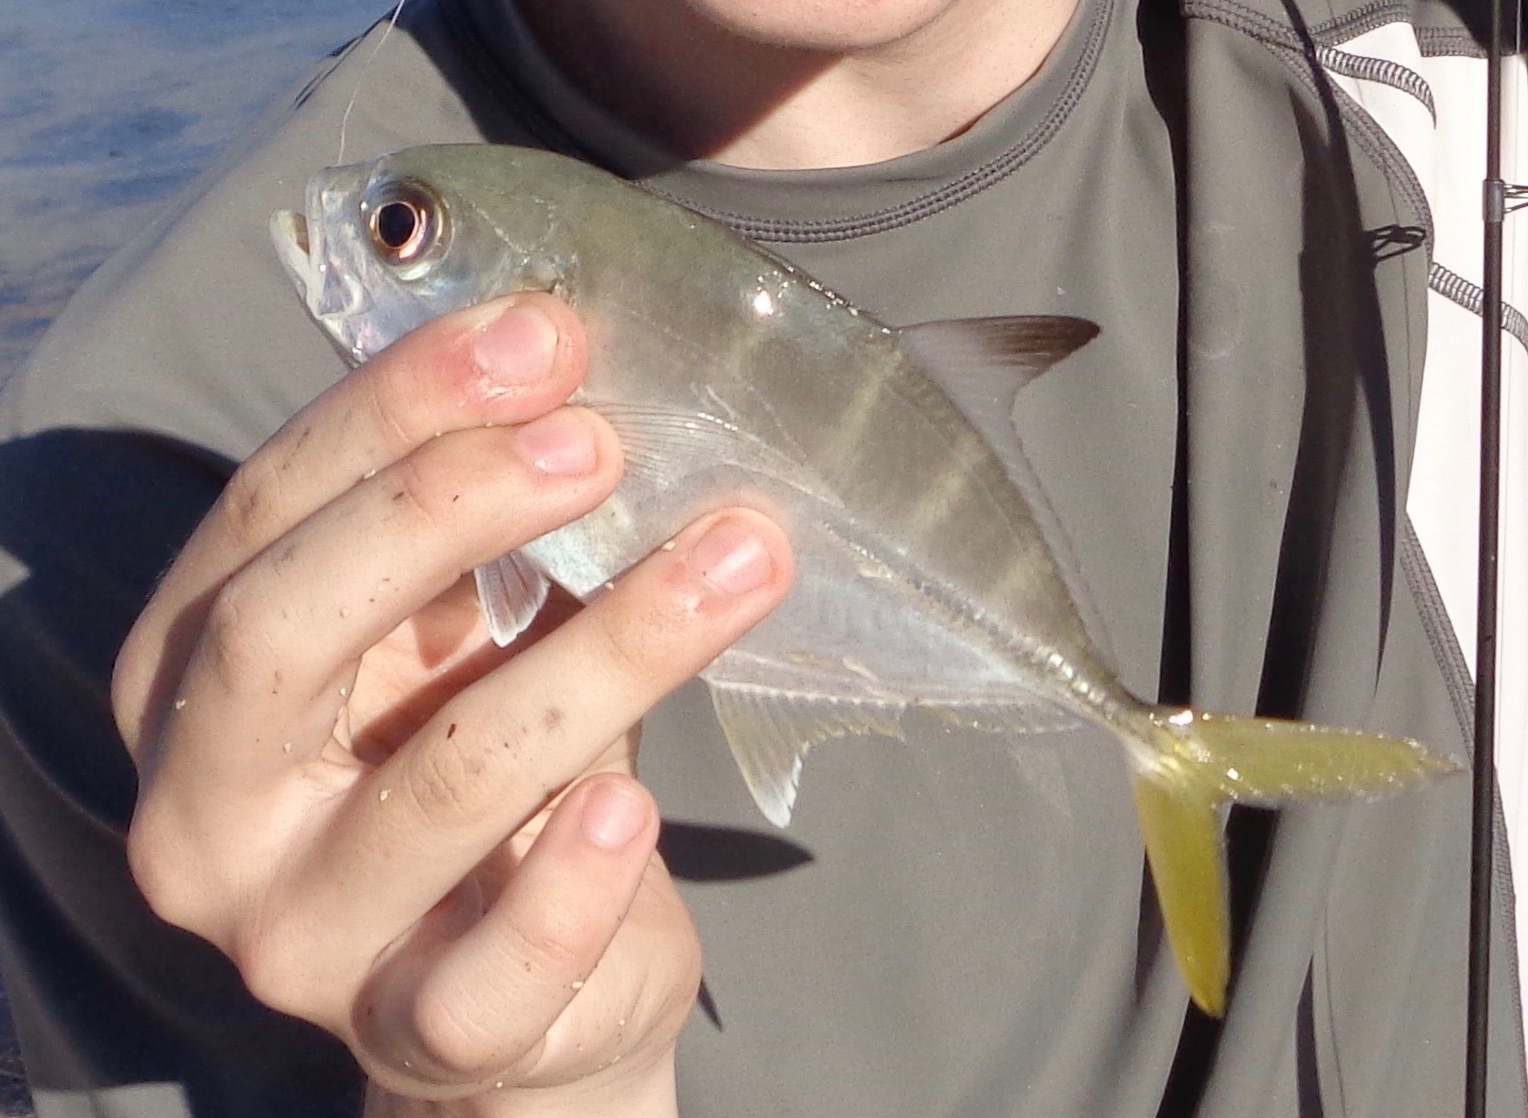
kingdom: Animalia
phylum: Chordata
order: Perciformes
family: Carangidae
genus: Caranx
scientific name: Caranx latus
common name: Horse eye jack
